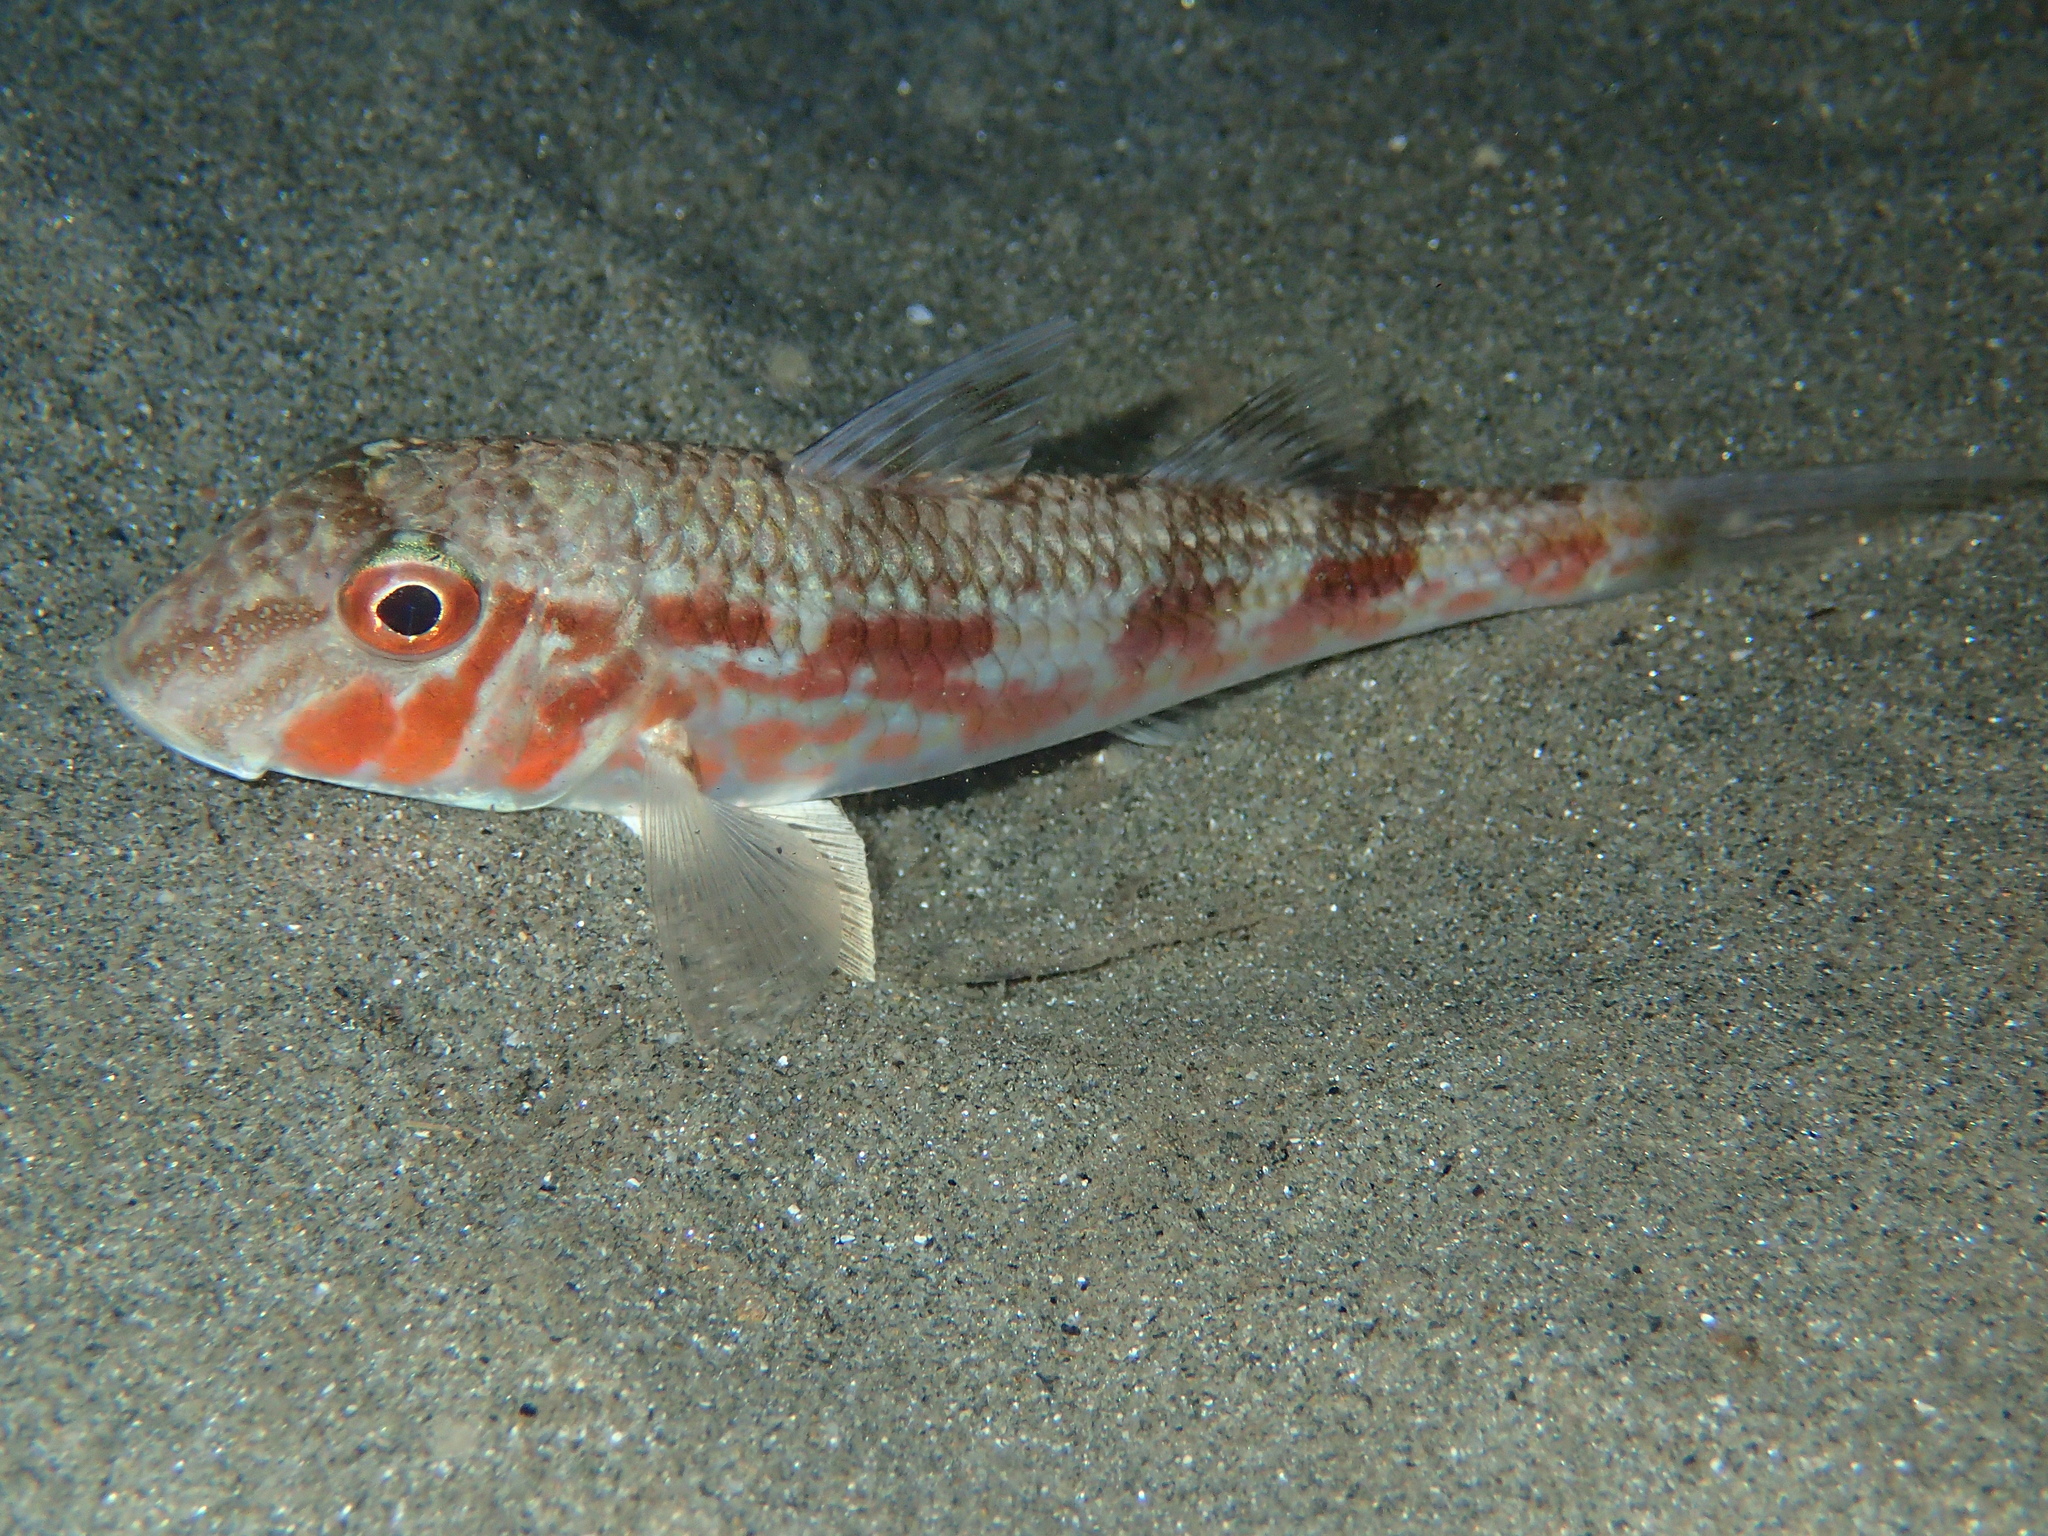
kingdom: Animalia
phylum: Chordata
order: Perciformes
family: Mullidae
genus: Mullus
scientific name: Mullus barbatus
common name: Blunt-snouted mullet
